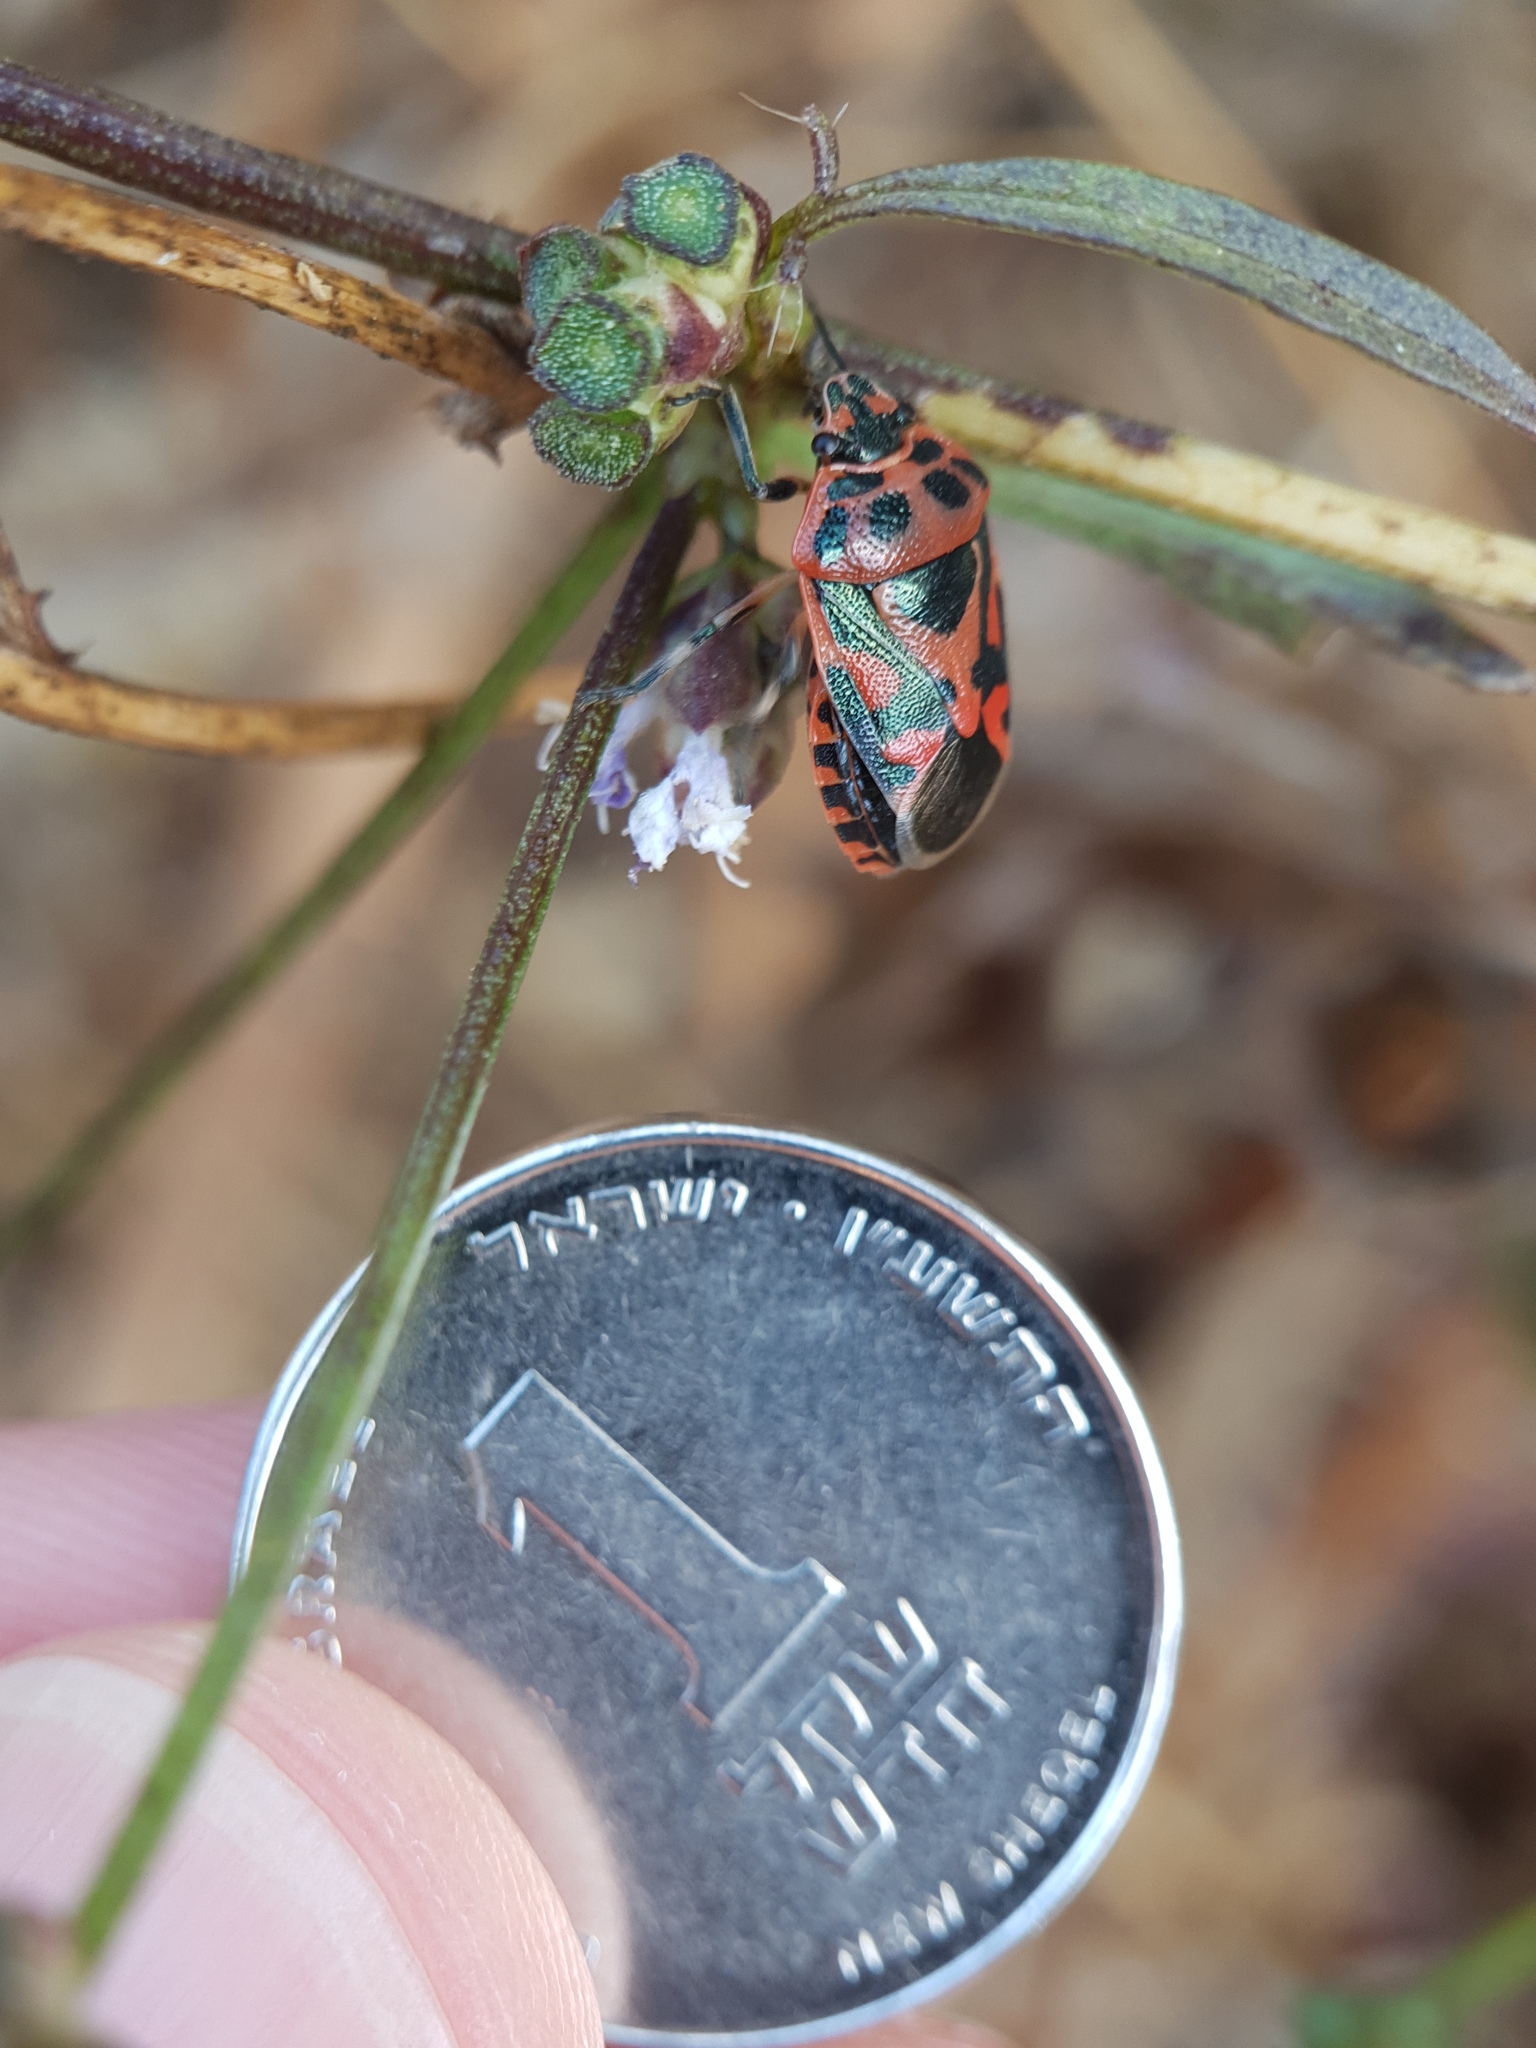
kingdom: Animalia
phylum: Arthropoda
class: Insecta
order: Hemiptera
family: Pentatomidae
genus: Eurydema
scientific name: Eurydema ornata
